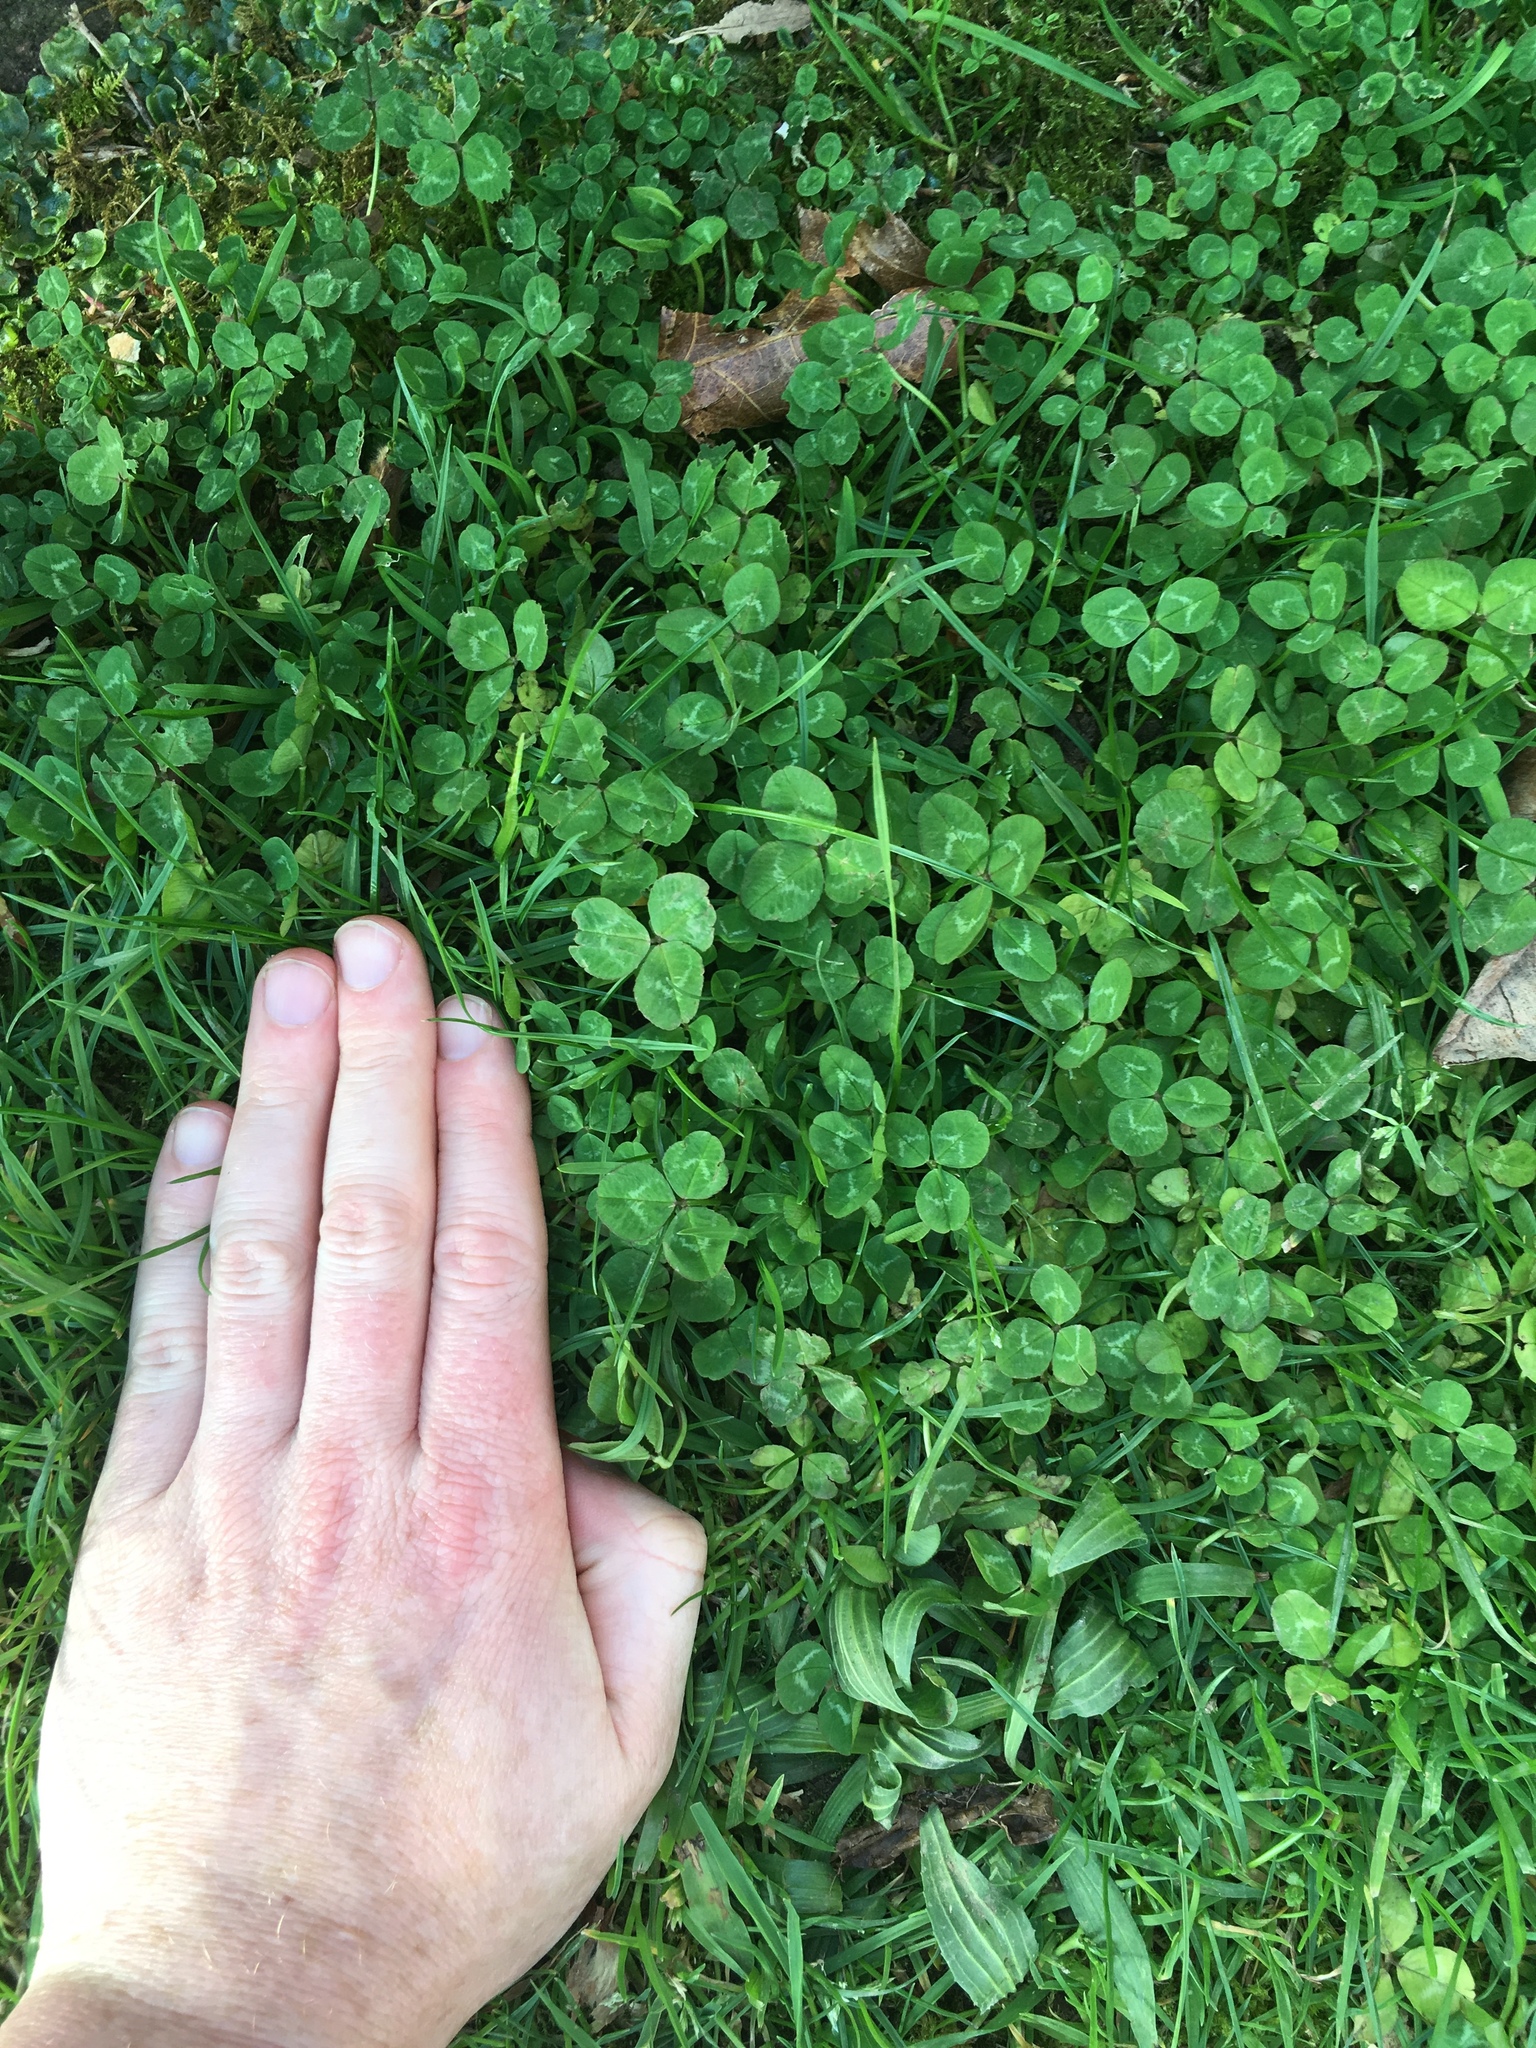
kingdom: Plantae
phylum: Tracheophyta
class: Magnoliopsida
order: Fabales
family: Fabaceae
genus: Trifolium
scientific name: Trifolium repens
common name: White clover
